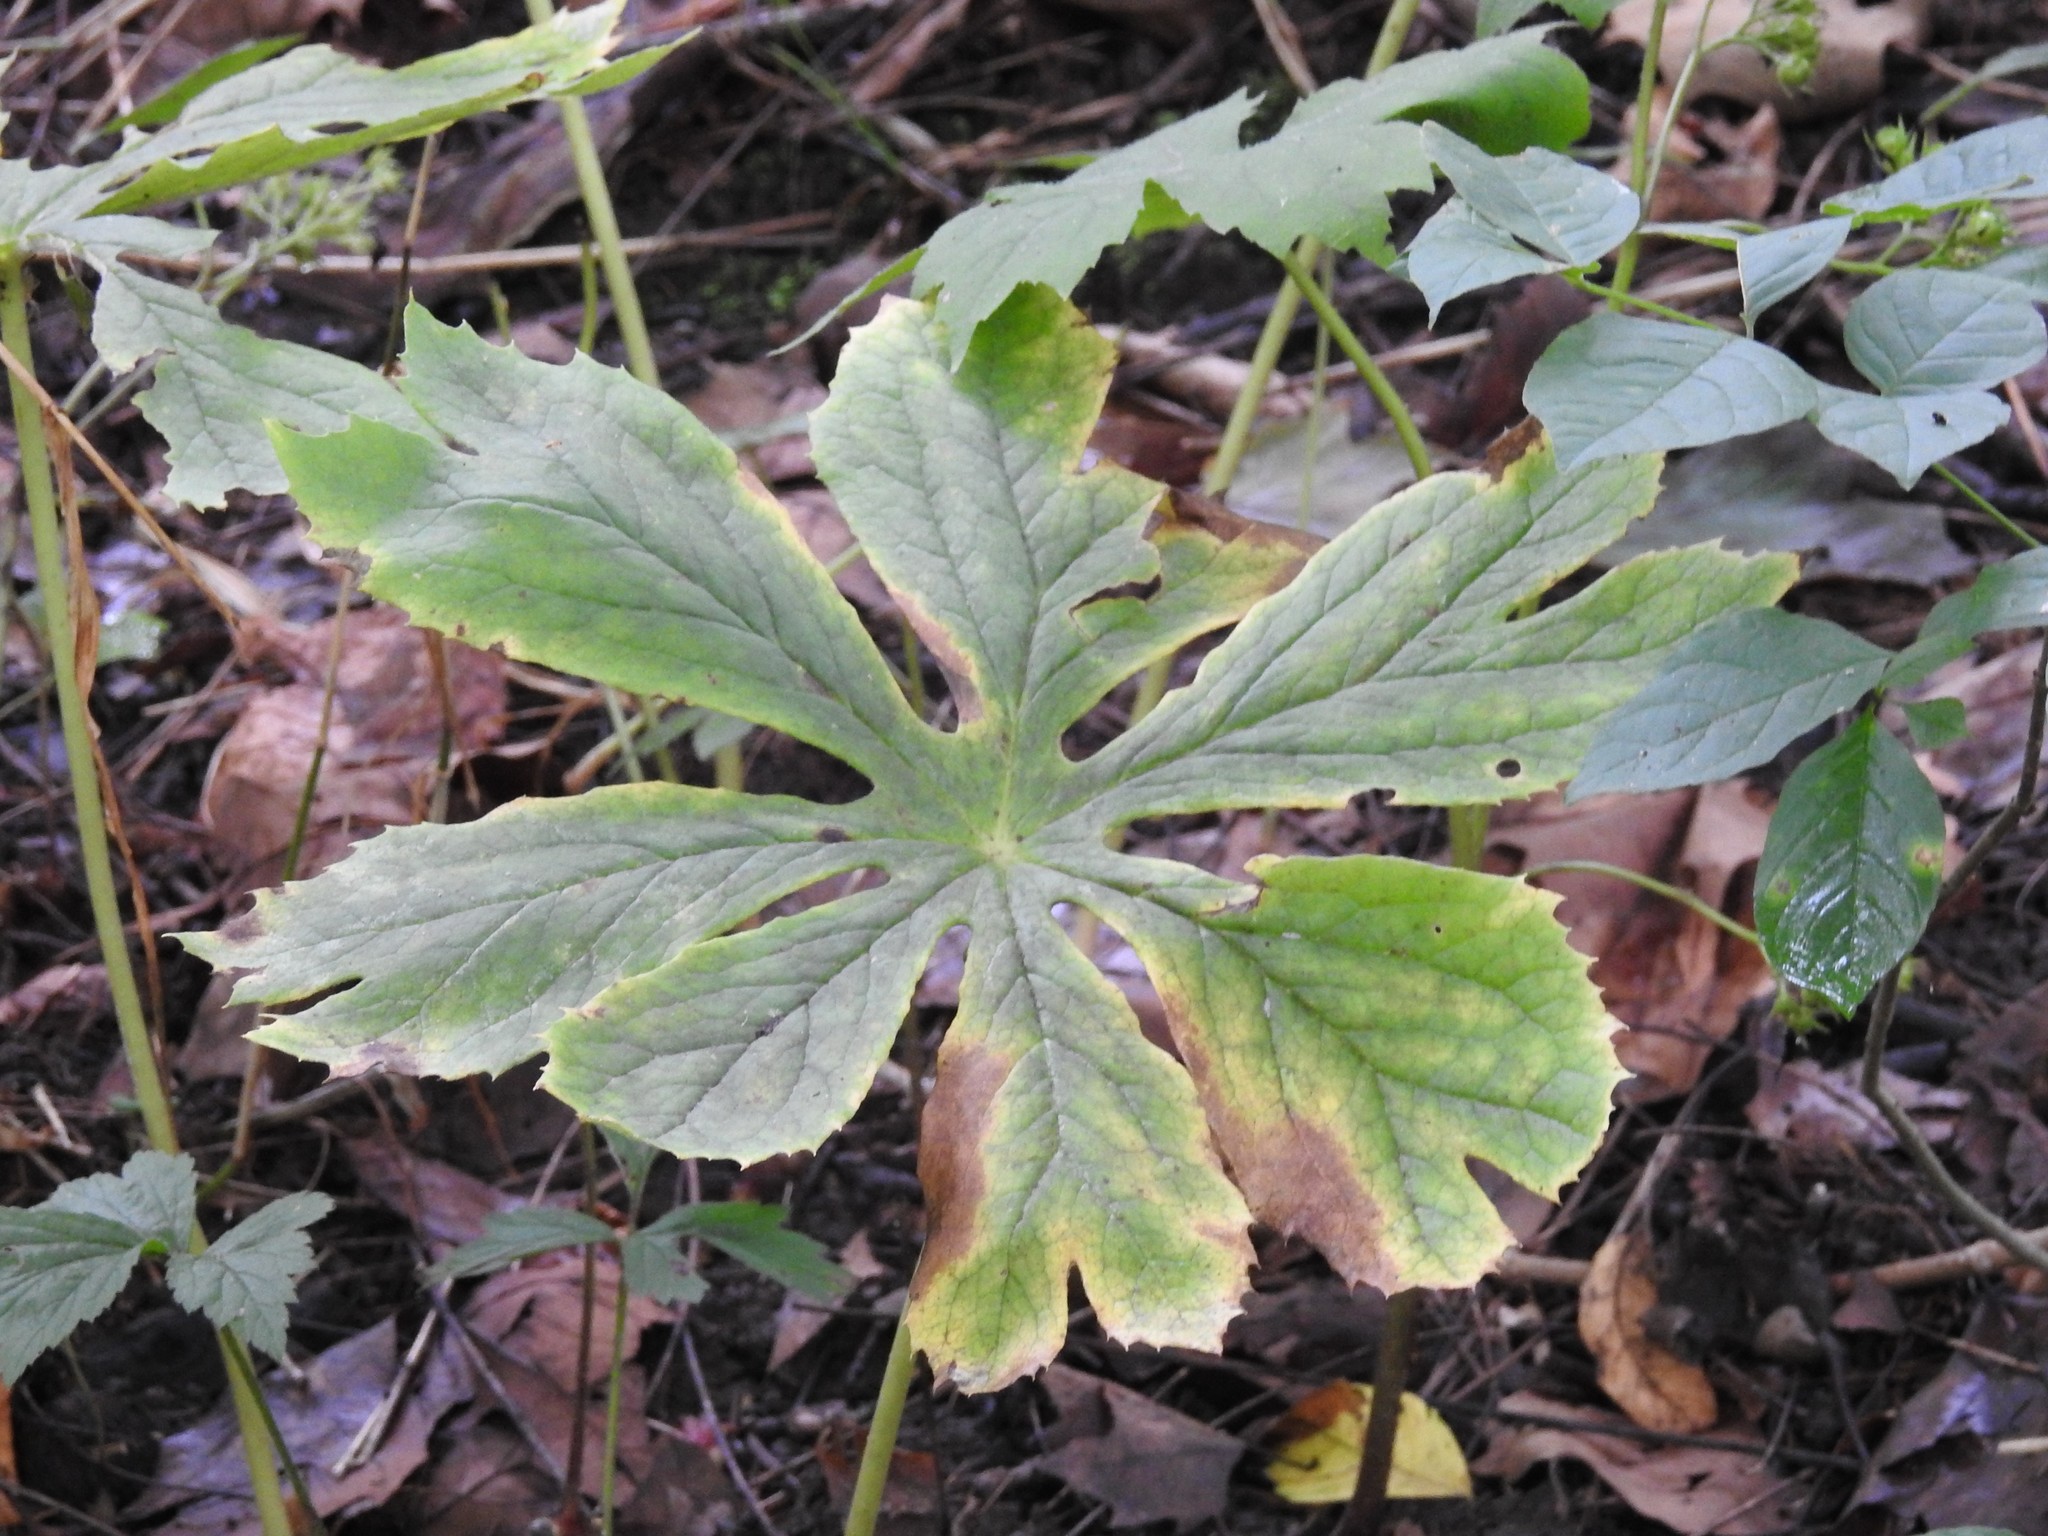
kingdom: Plantae
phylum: Tracheophyta
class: Magnoliopsida
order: Ranunculales
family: Berberidaceae
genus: Podophyllum
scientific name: Podophyllum peltatum
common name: Wild mandrake
